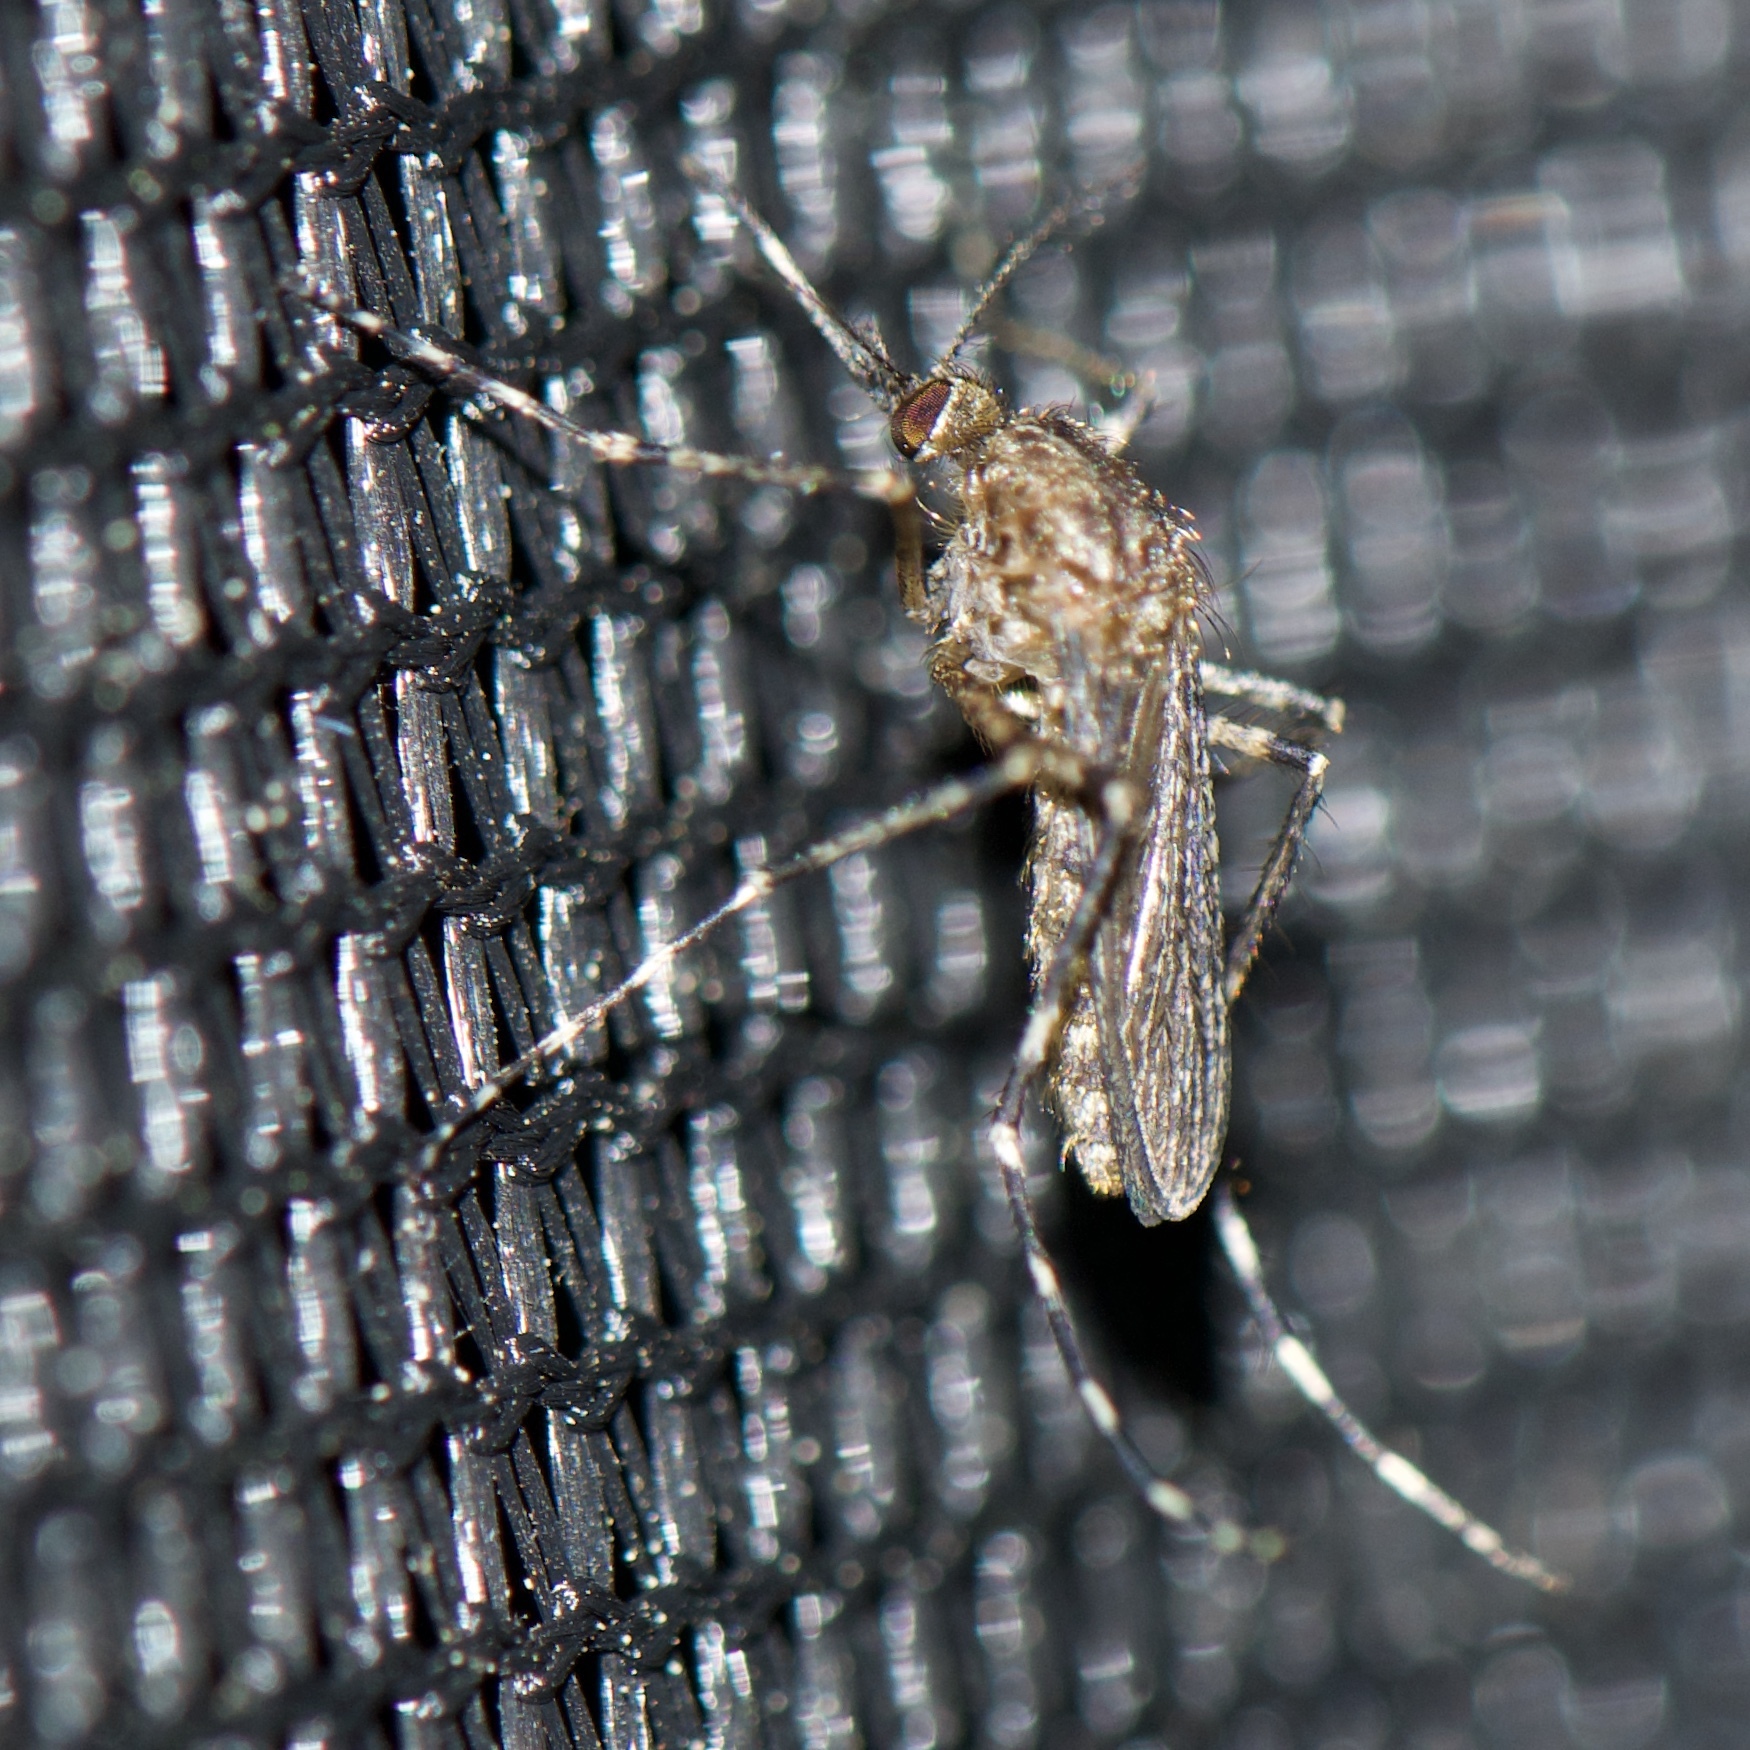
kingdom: Animalia
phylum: Arthropoda
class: Insecta
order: Diptera
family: Culicidae
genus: Coquillettidia
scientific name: Coquillettidia perturbans
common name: Cattail mosquito
